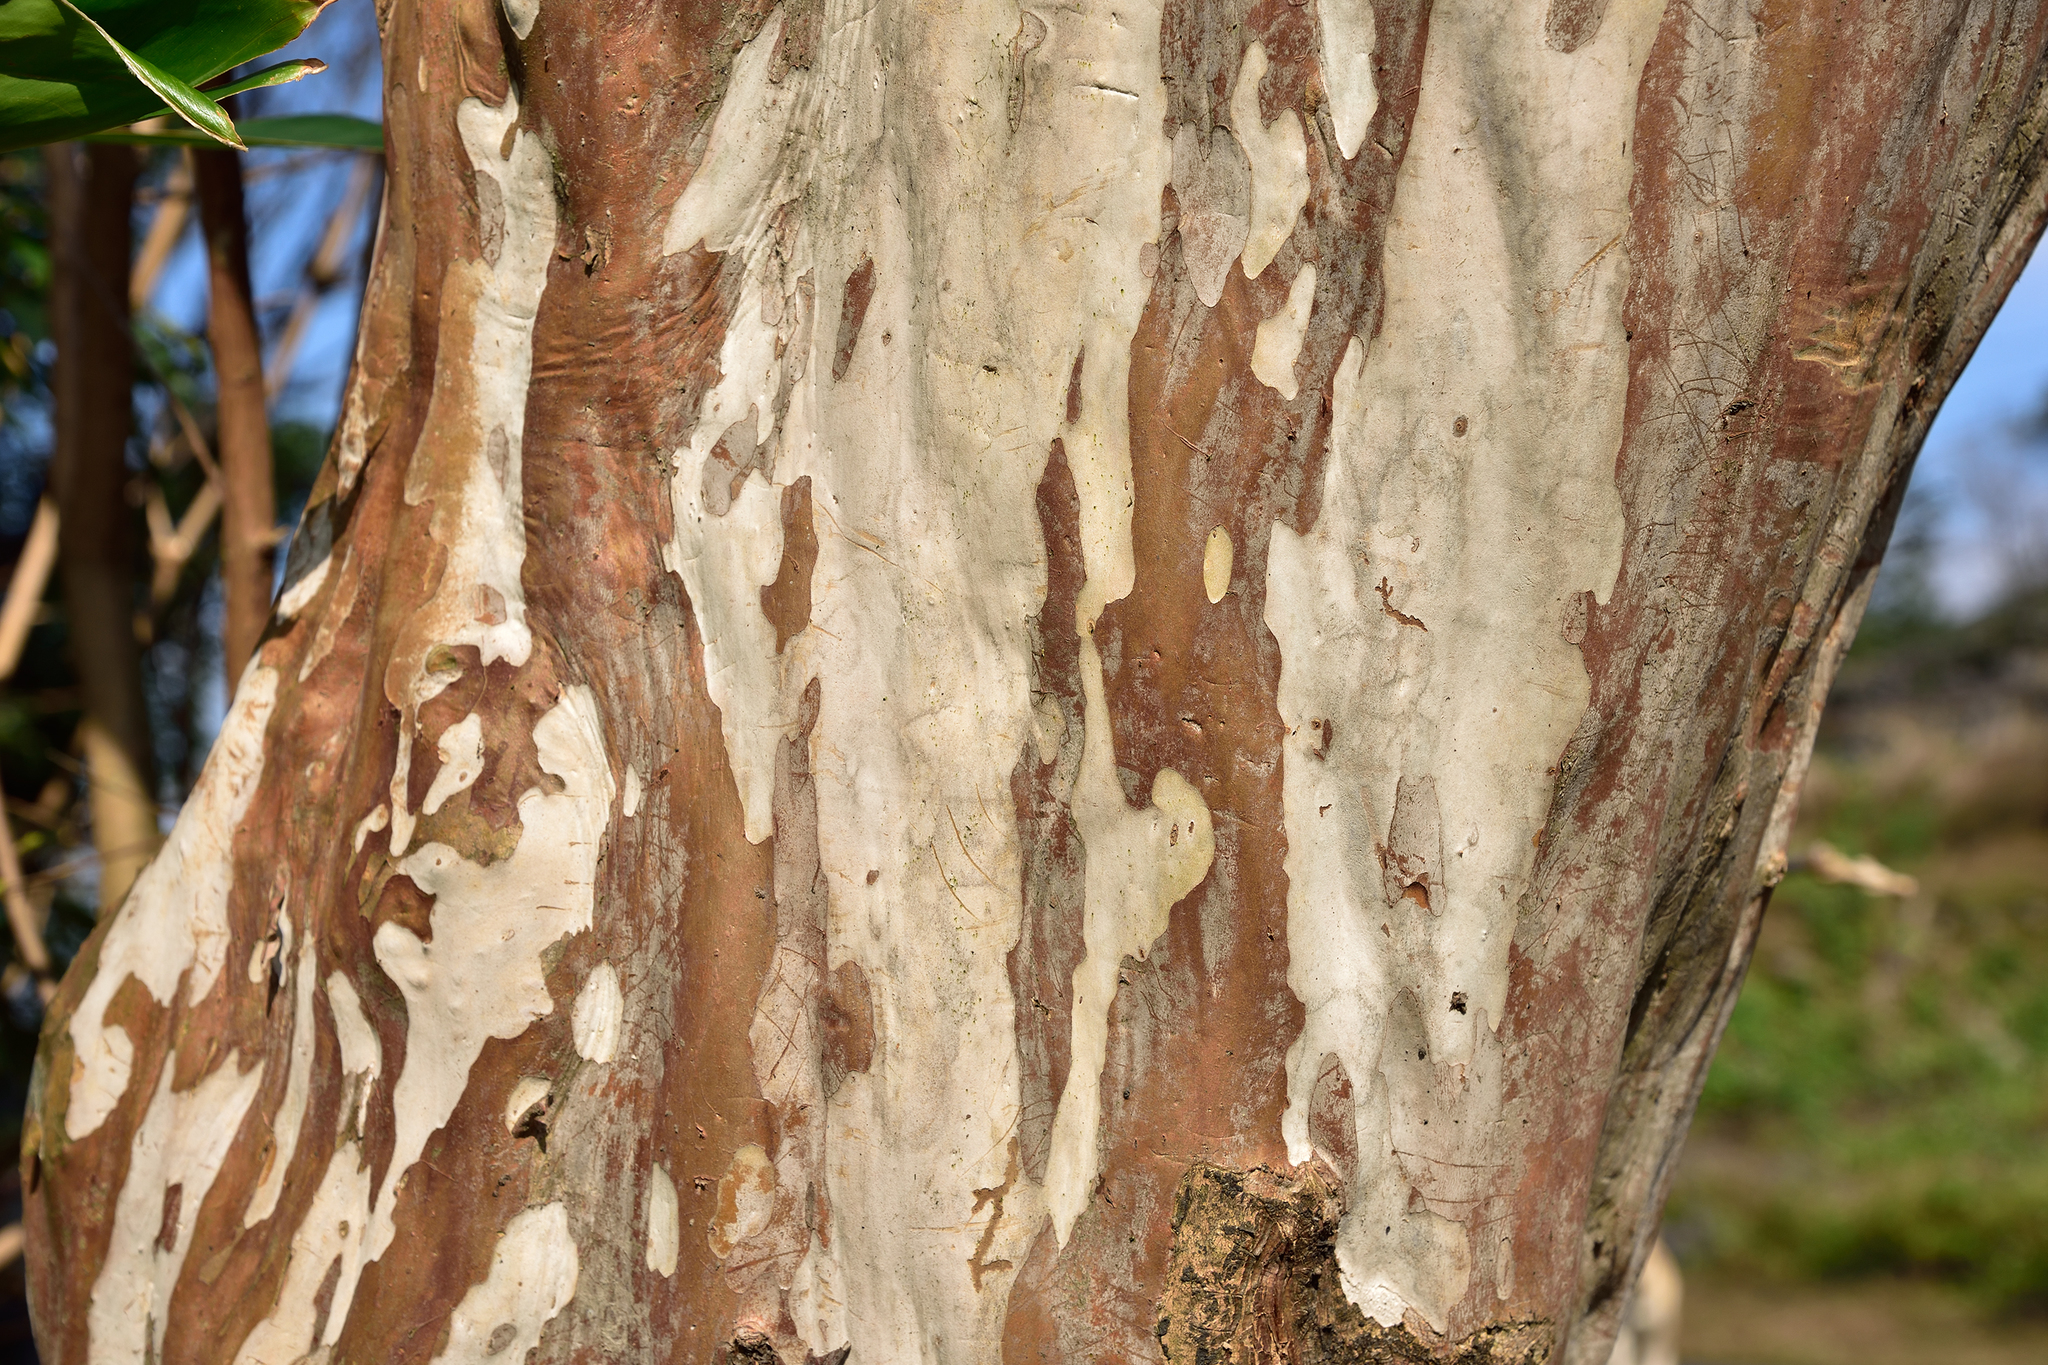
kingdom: Plantae
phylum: Tracheophyta
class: Magnoliopsida
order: Myrtales
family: Lythraceae
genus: Lagerstroemia
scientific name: Lagerstroemia subcostata
